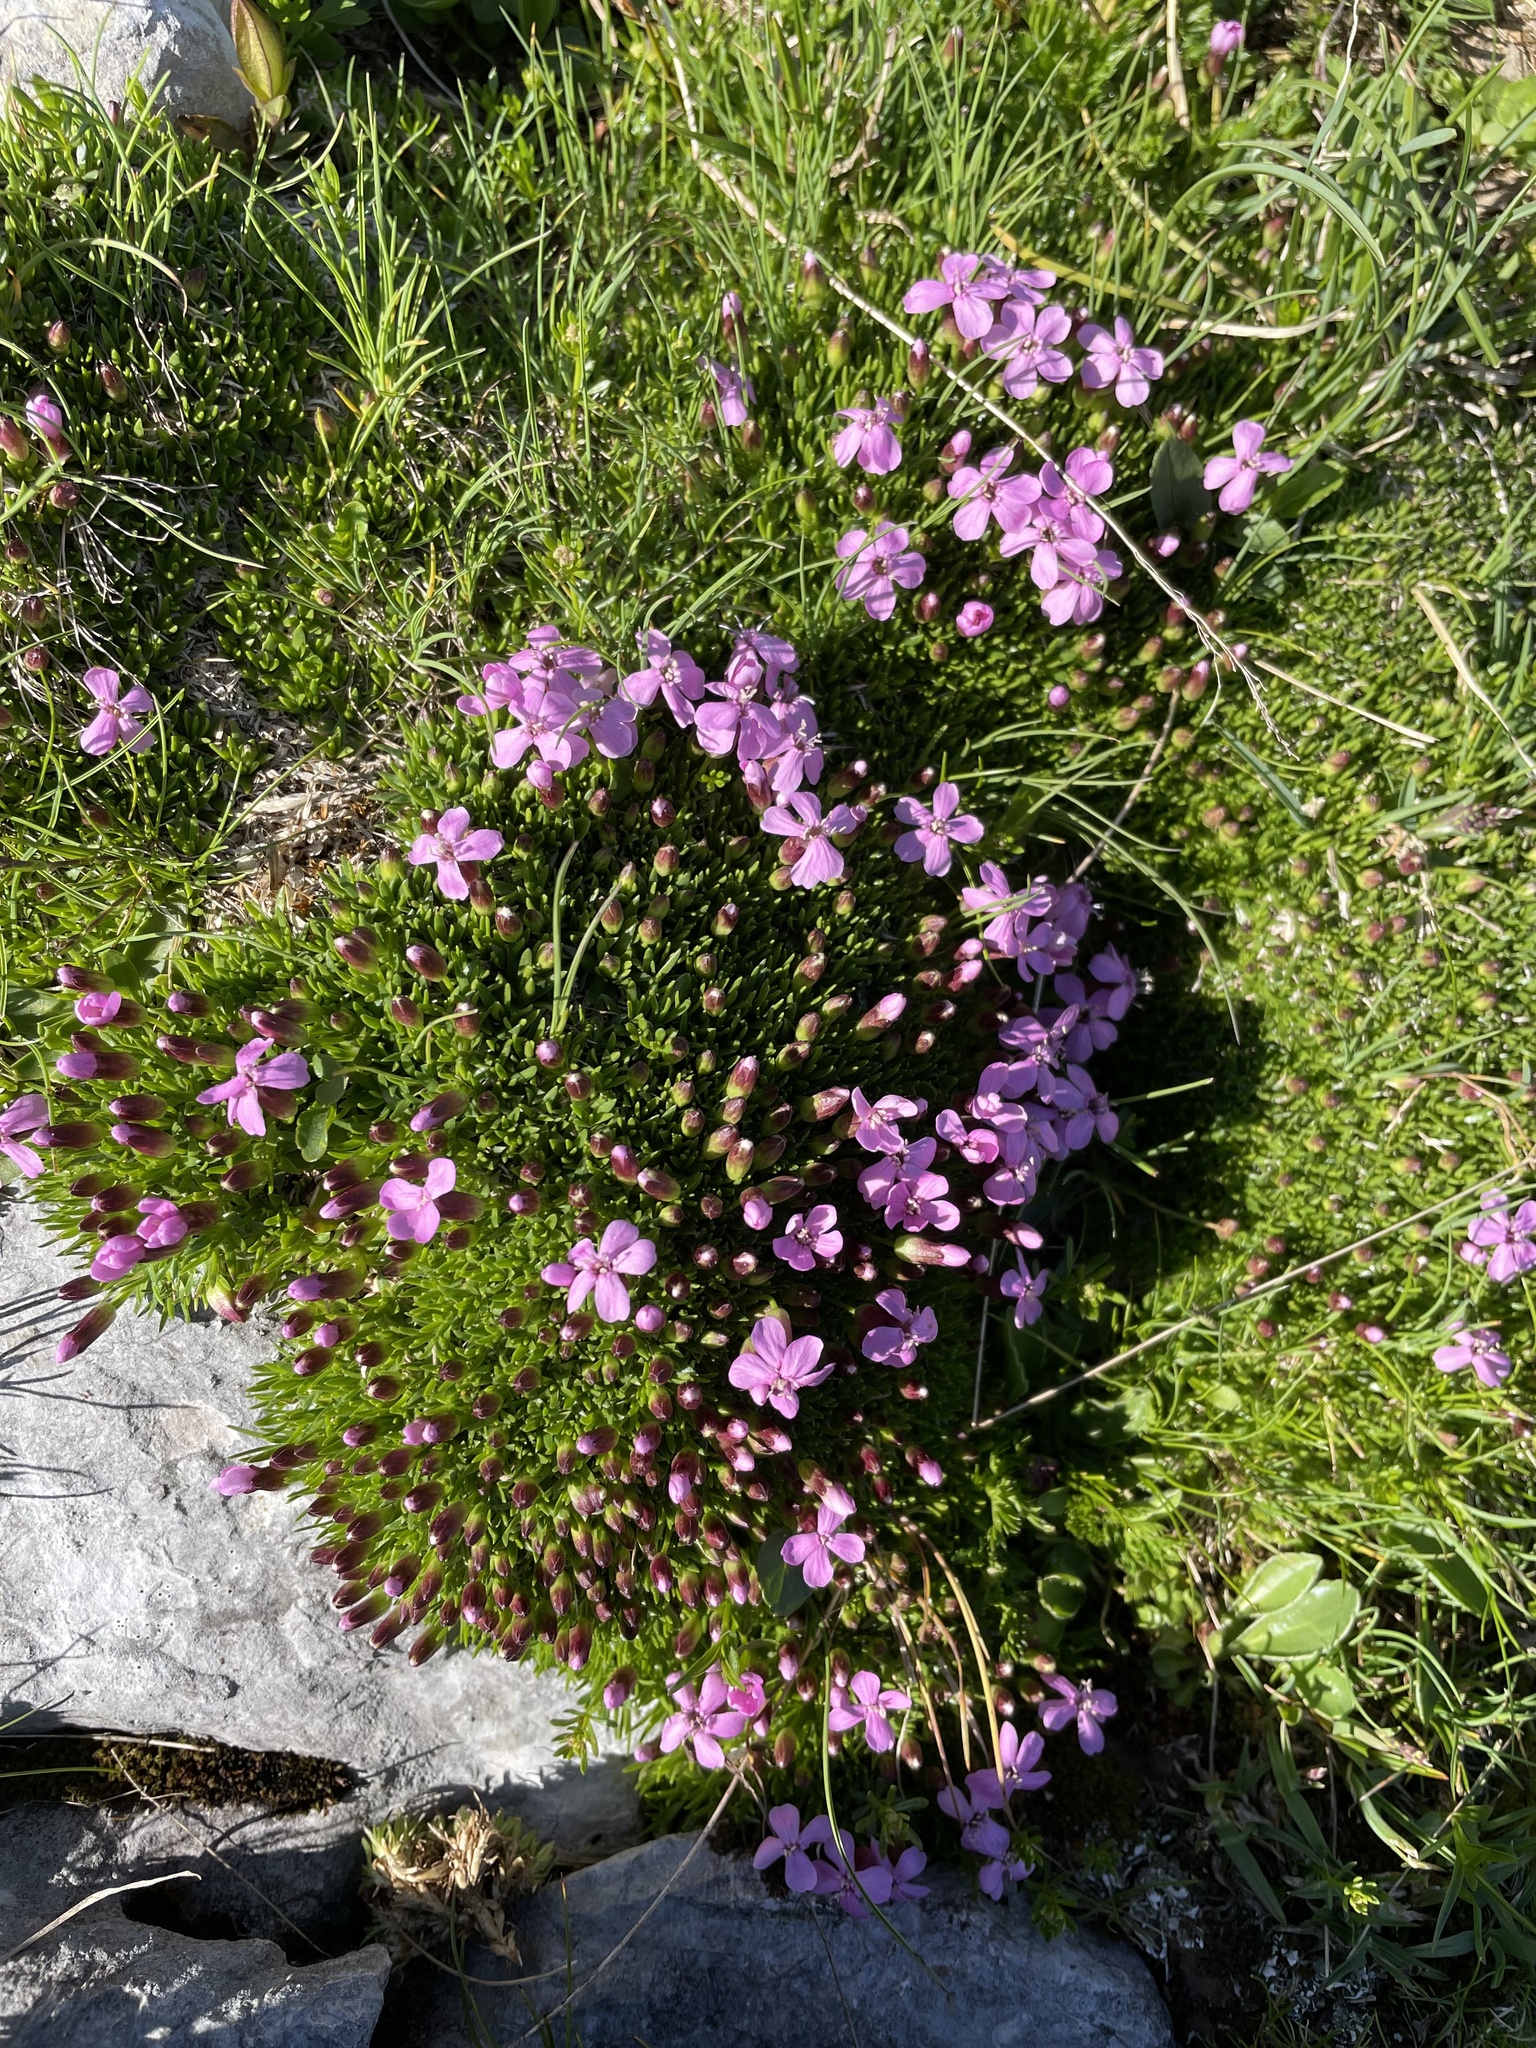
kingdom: Plantae
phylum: Tracheophyta
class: Magnoliopsida
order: Caryophyllales
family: Caryophyllaceae
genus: Silene
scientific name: Silene acaulis
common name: Moss campion
